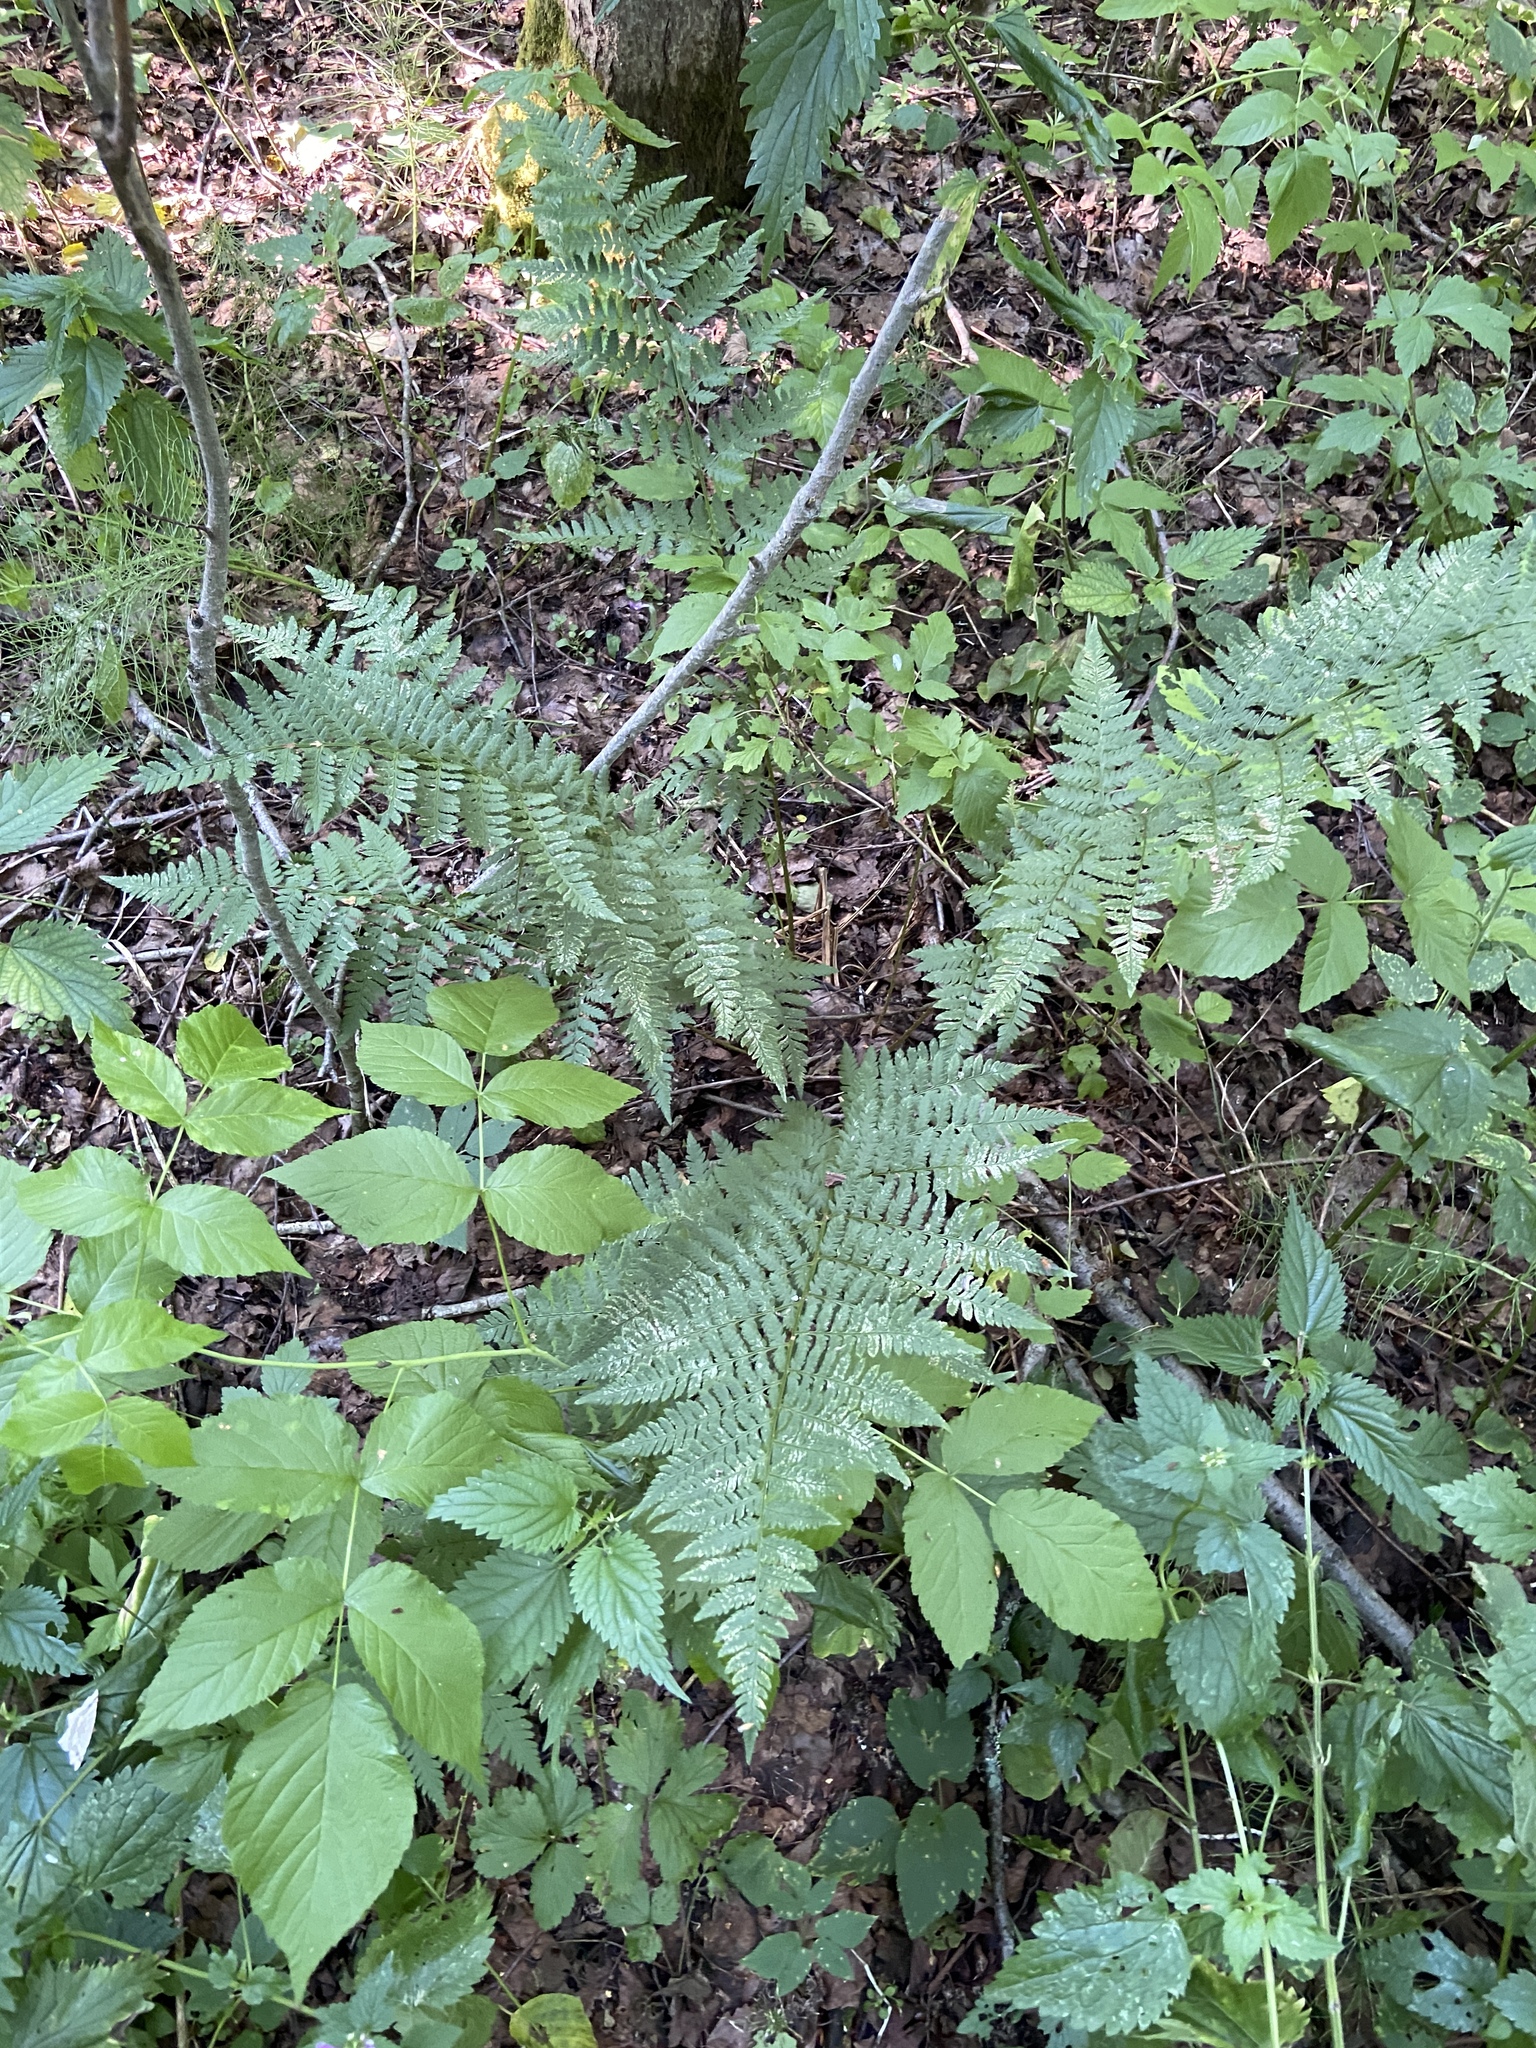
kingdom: Plantae
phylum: Tracheophyta
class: Polypodiopsida
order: Polypodiales
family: Dryopteridaceae
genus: Dryopteris
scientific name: Dryopteris carthusiana
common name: Narrow buckler-fern
